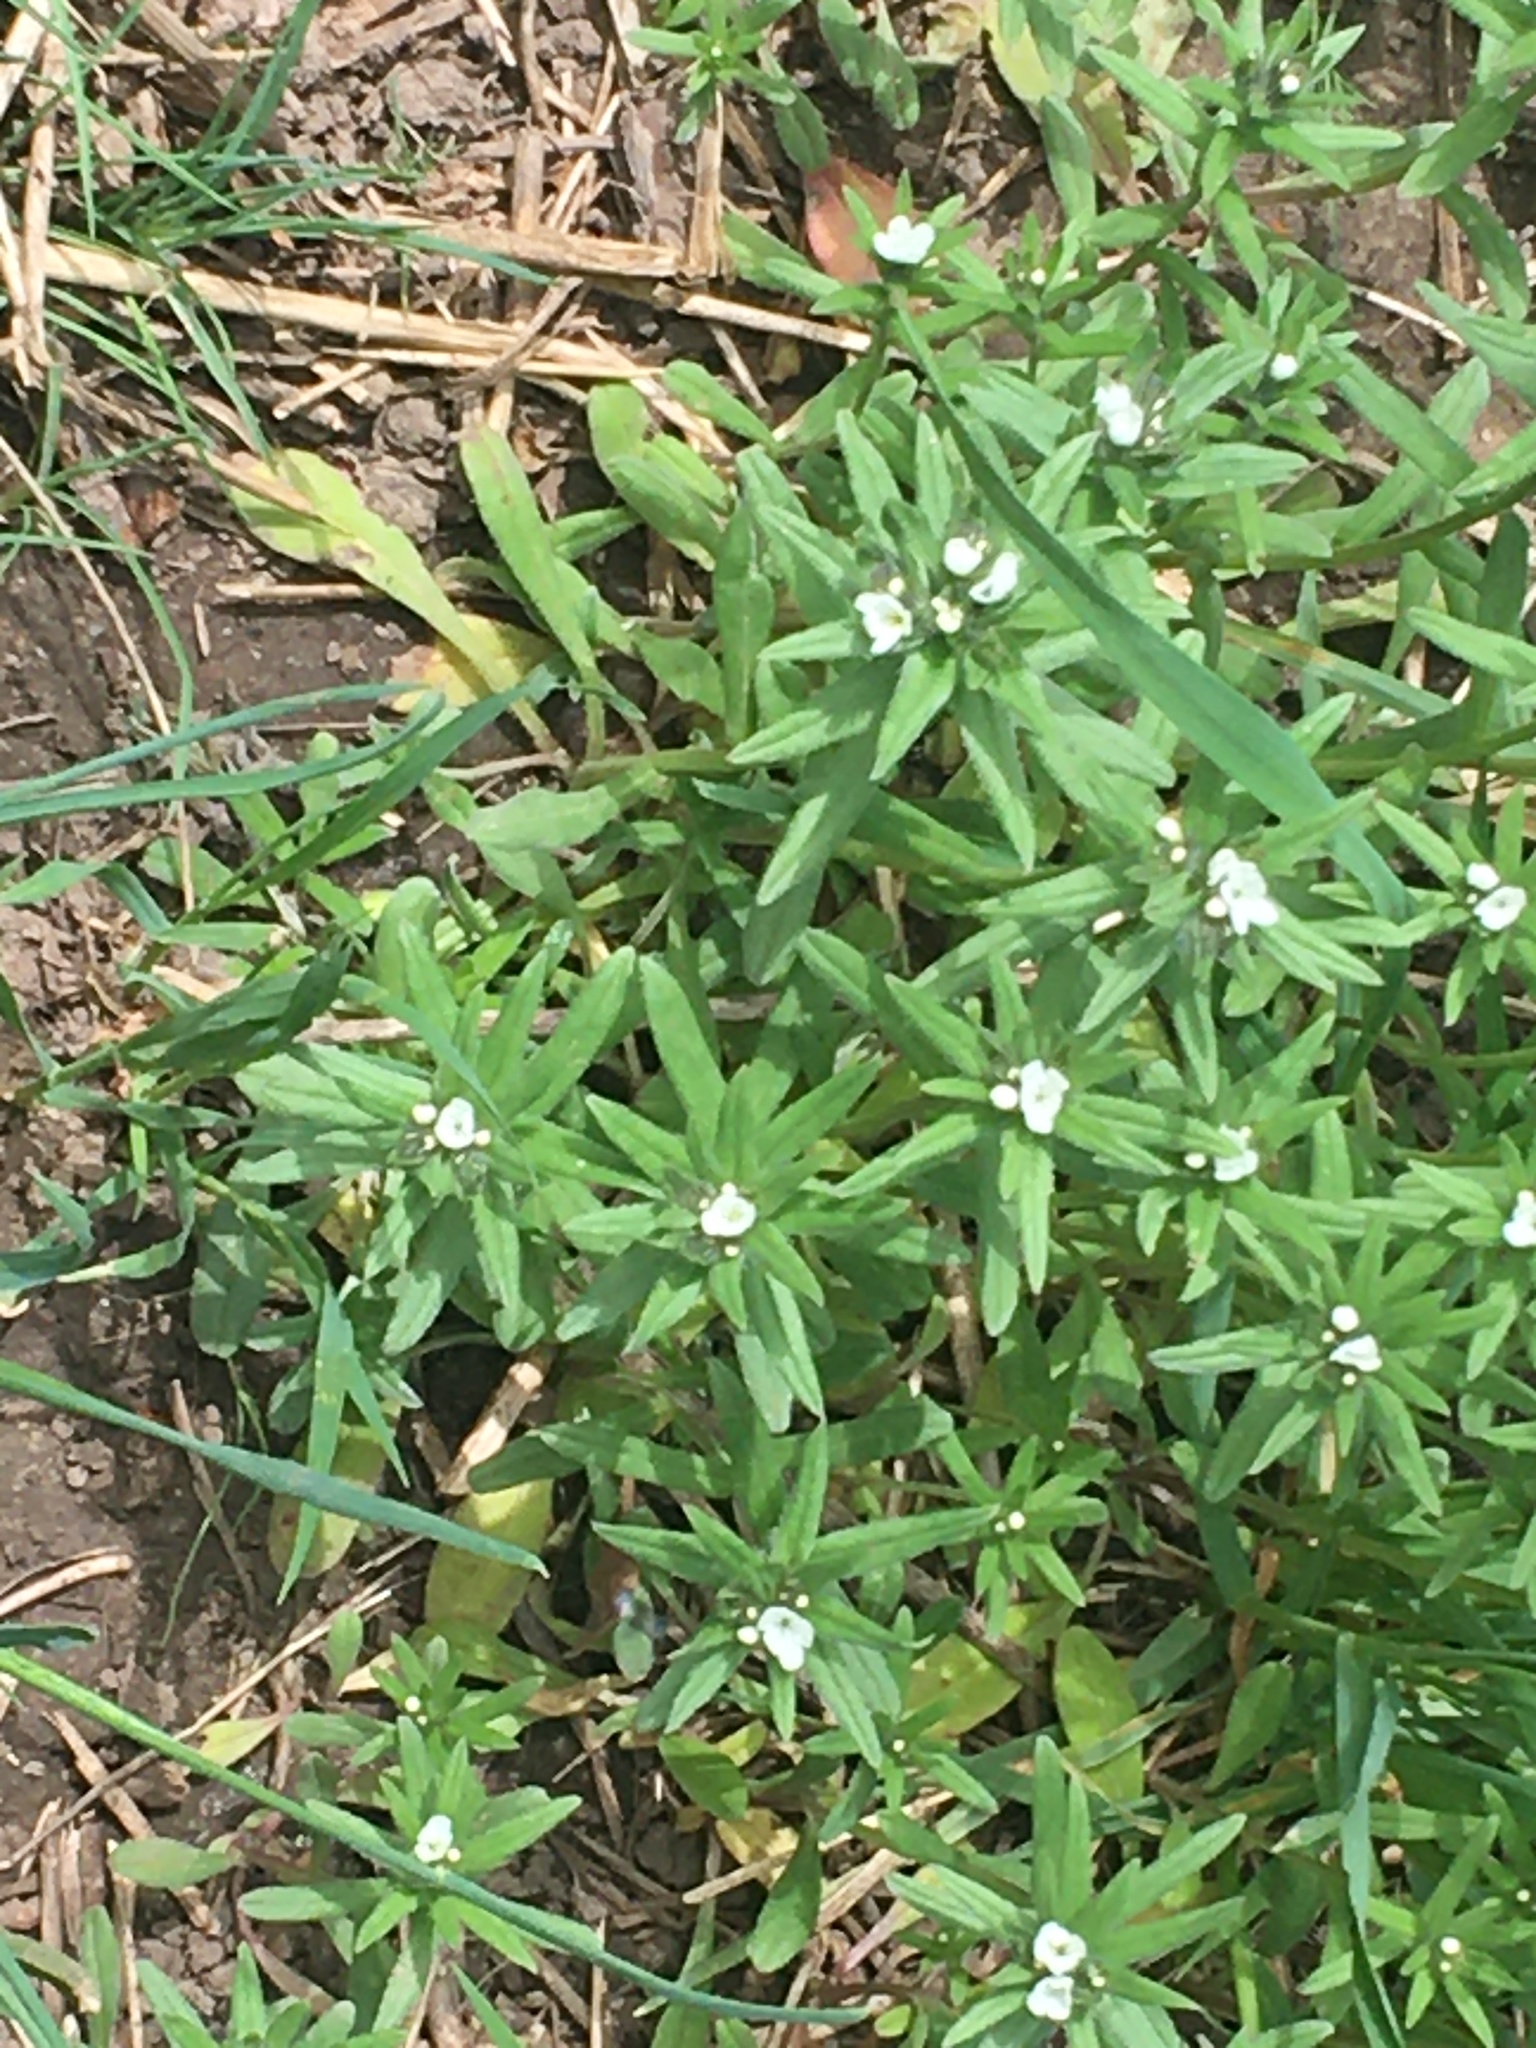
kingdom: Plantae
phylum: Tracheophyta
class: Magnoliopsida
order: Boraginales
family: Boraginaceae
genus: Buglossoides
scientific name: Buglossoides arvensis
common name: Corn gromwell
